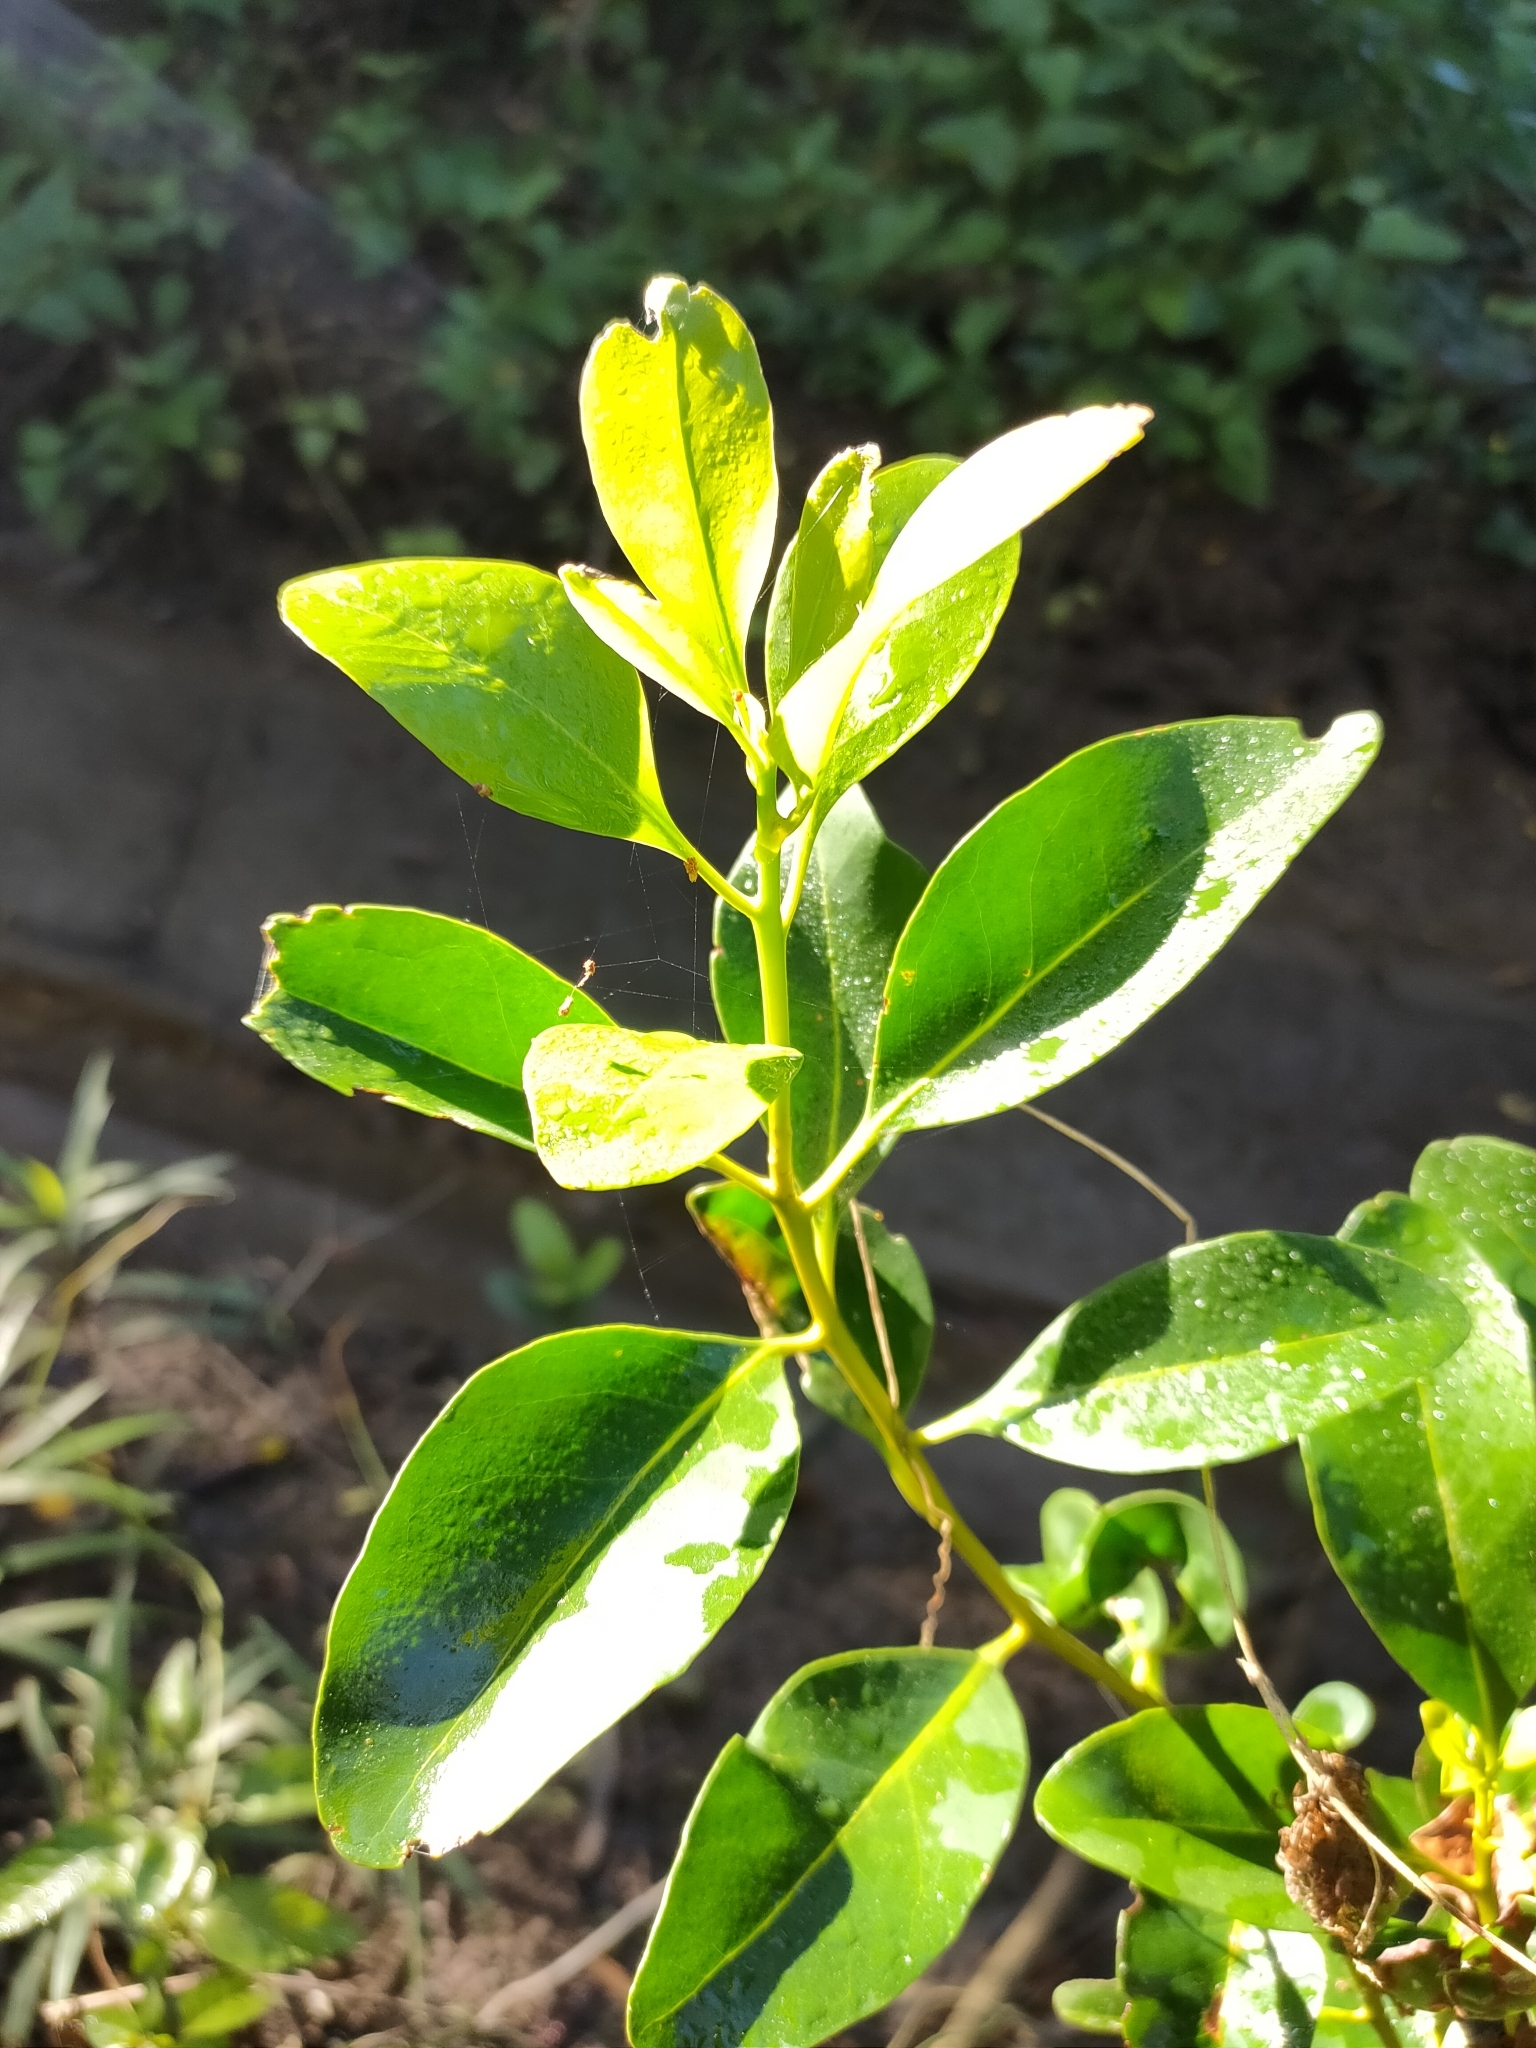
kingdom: Plantae
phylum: Tracheophyta
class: Magnoliopsida
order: Ericales
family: Primulaceae
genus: Aegiceras
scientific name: Aegiceras corniculatum
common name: River mangrove
